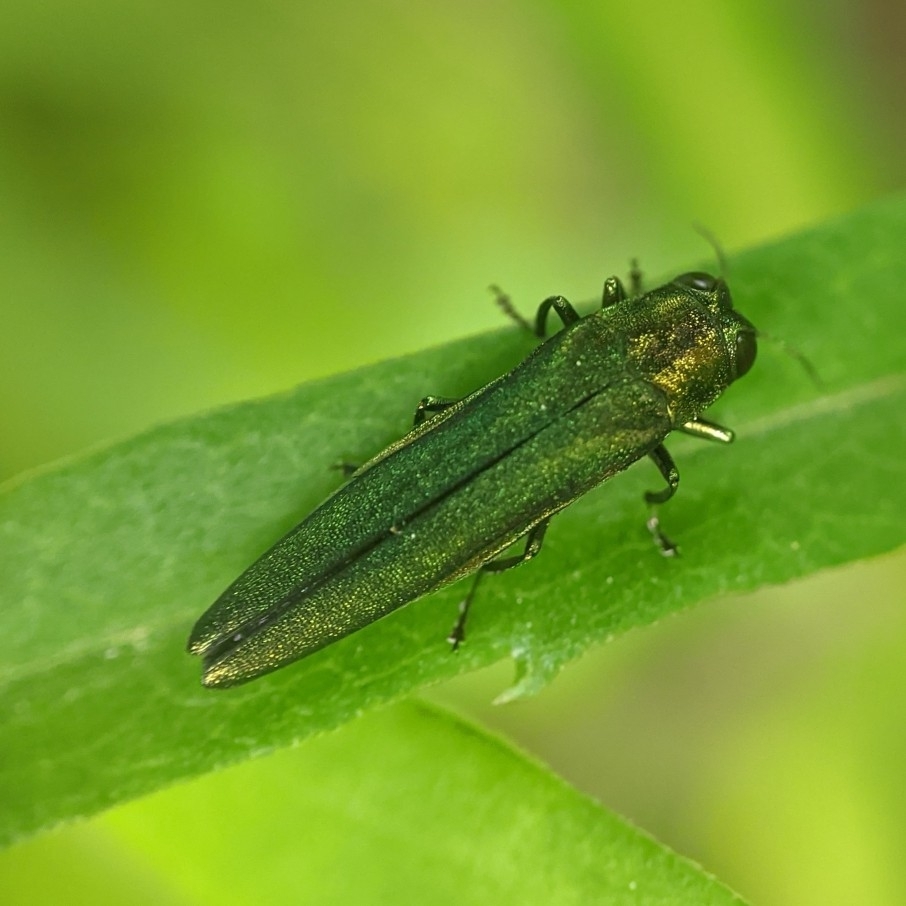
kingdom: Animalia
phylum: Arthropoda
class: Insecta
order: Coleoptera
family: Buprestidae
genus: Agrilus
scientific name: Agrilus planipennis
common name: Emerald ash borer
